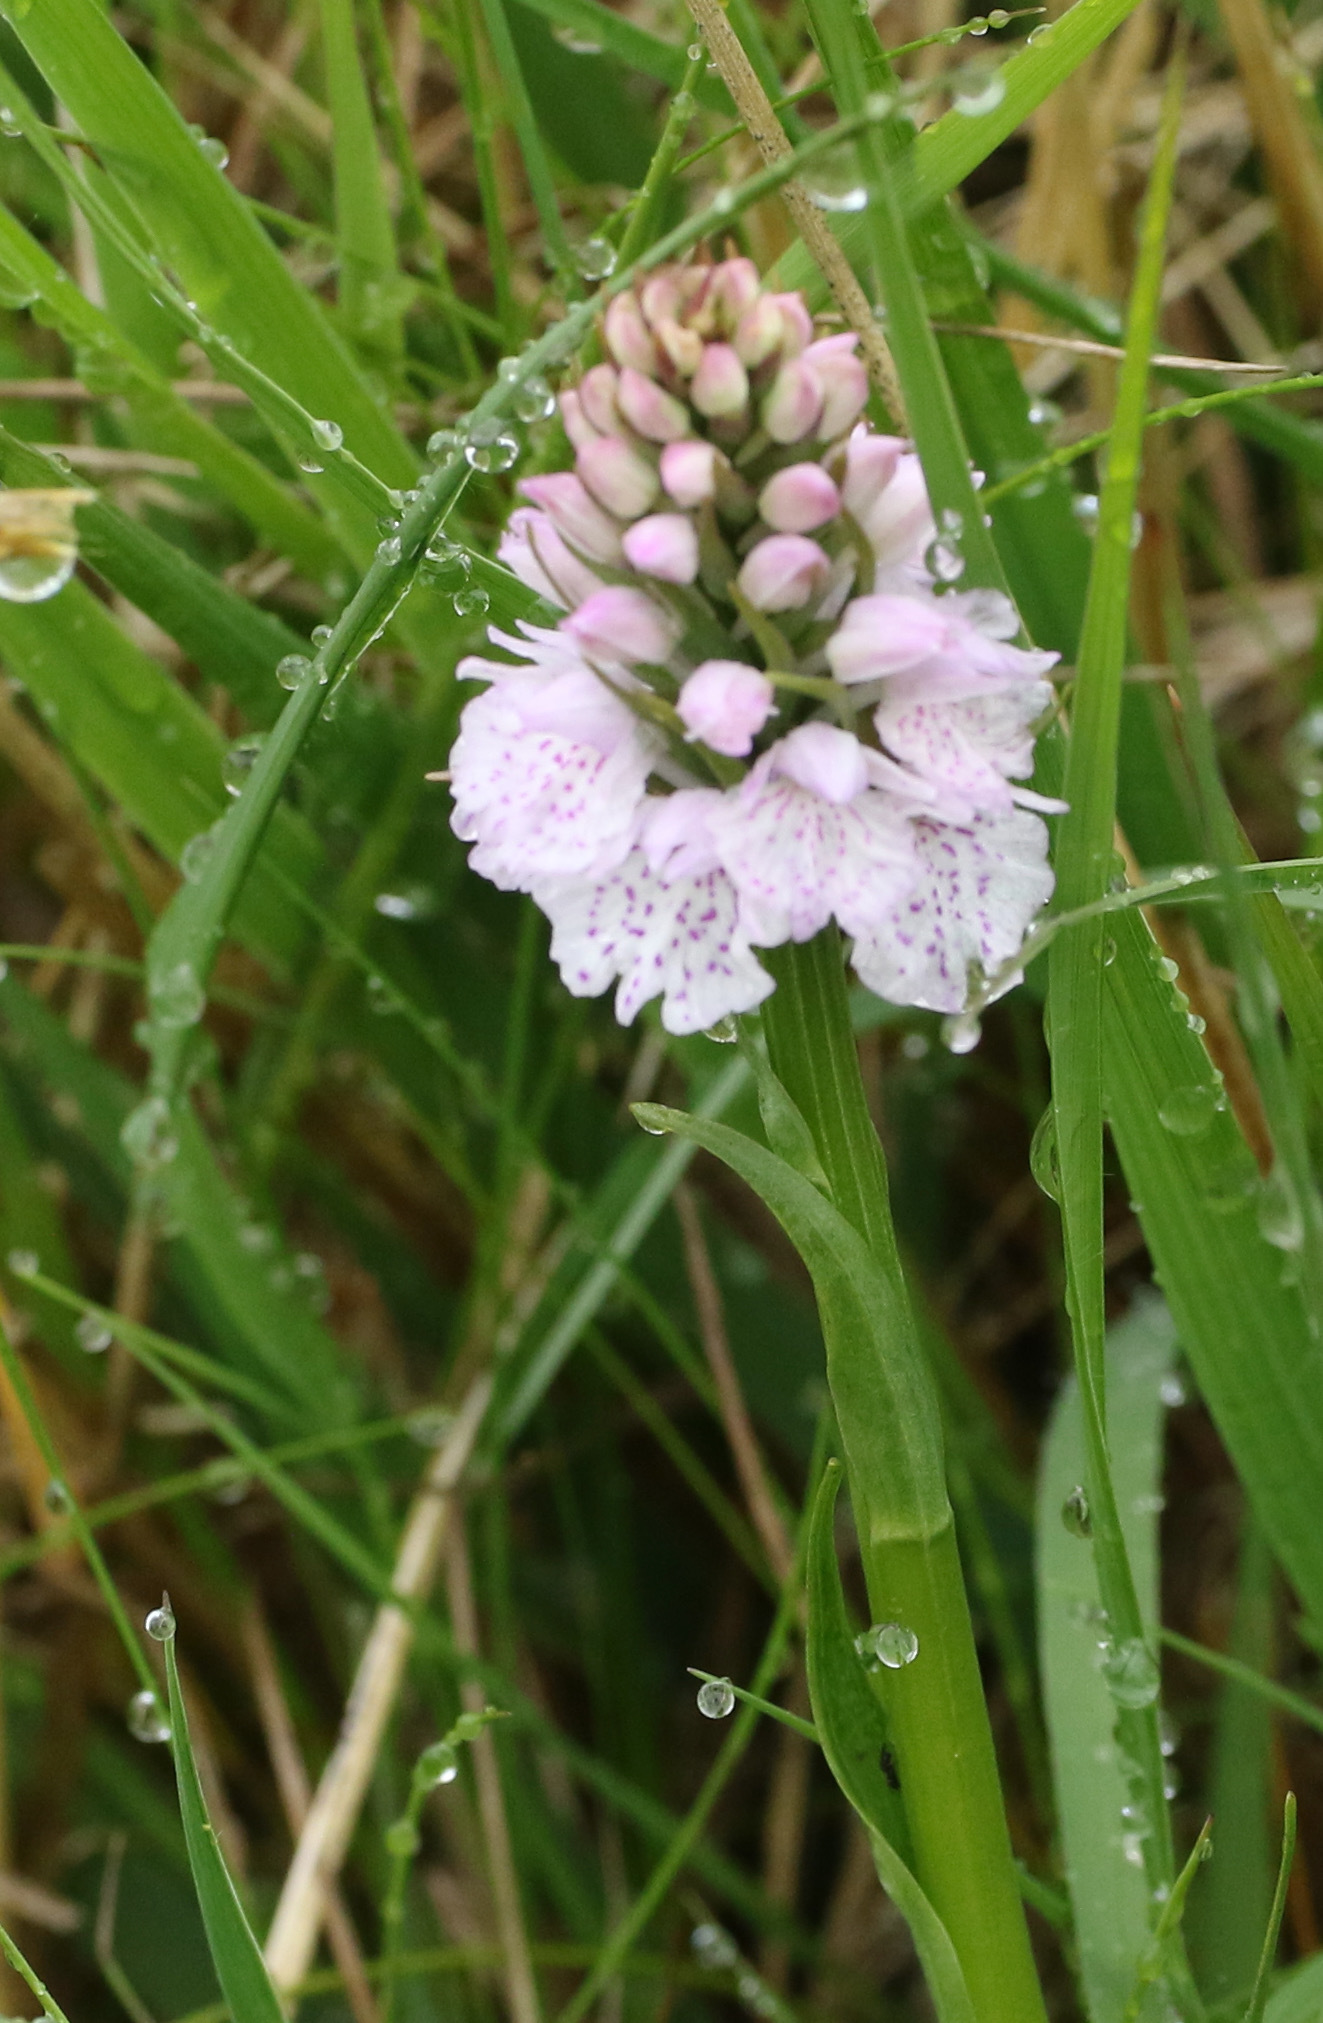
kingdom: Plantae
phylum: Tracheophyta
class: Liliopsida
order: Asparagales
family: Orchidaceae
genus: Dactylorhiza
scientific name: Dactylorhiza maculata
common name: Heath spotted-orchid
